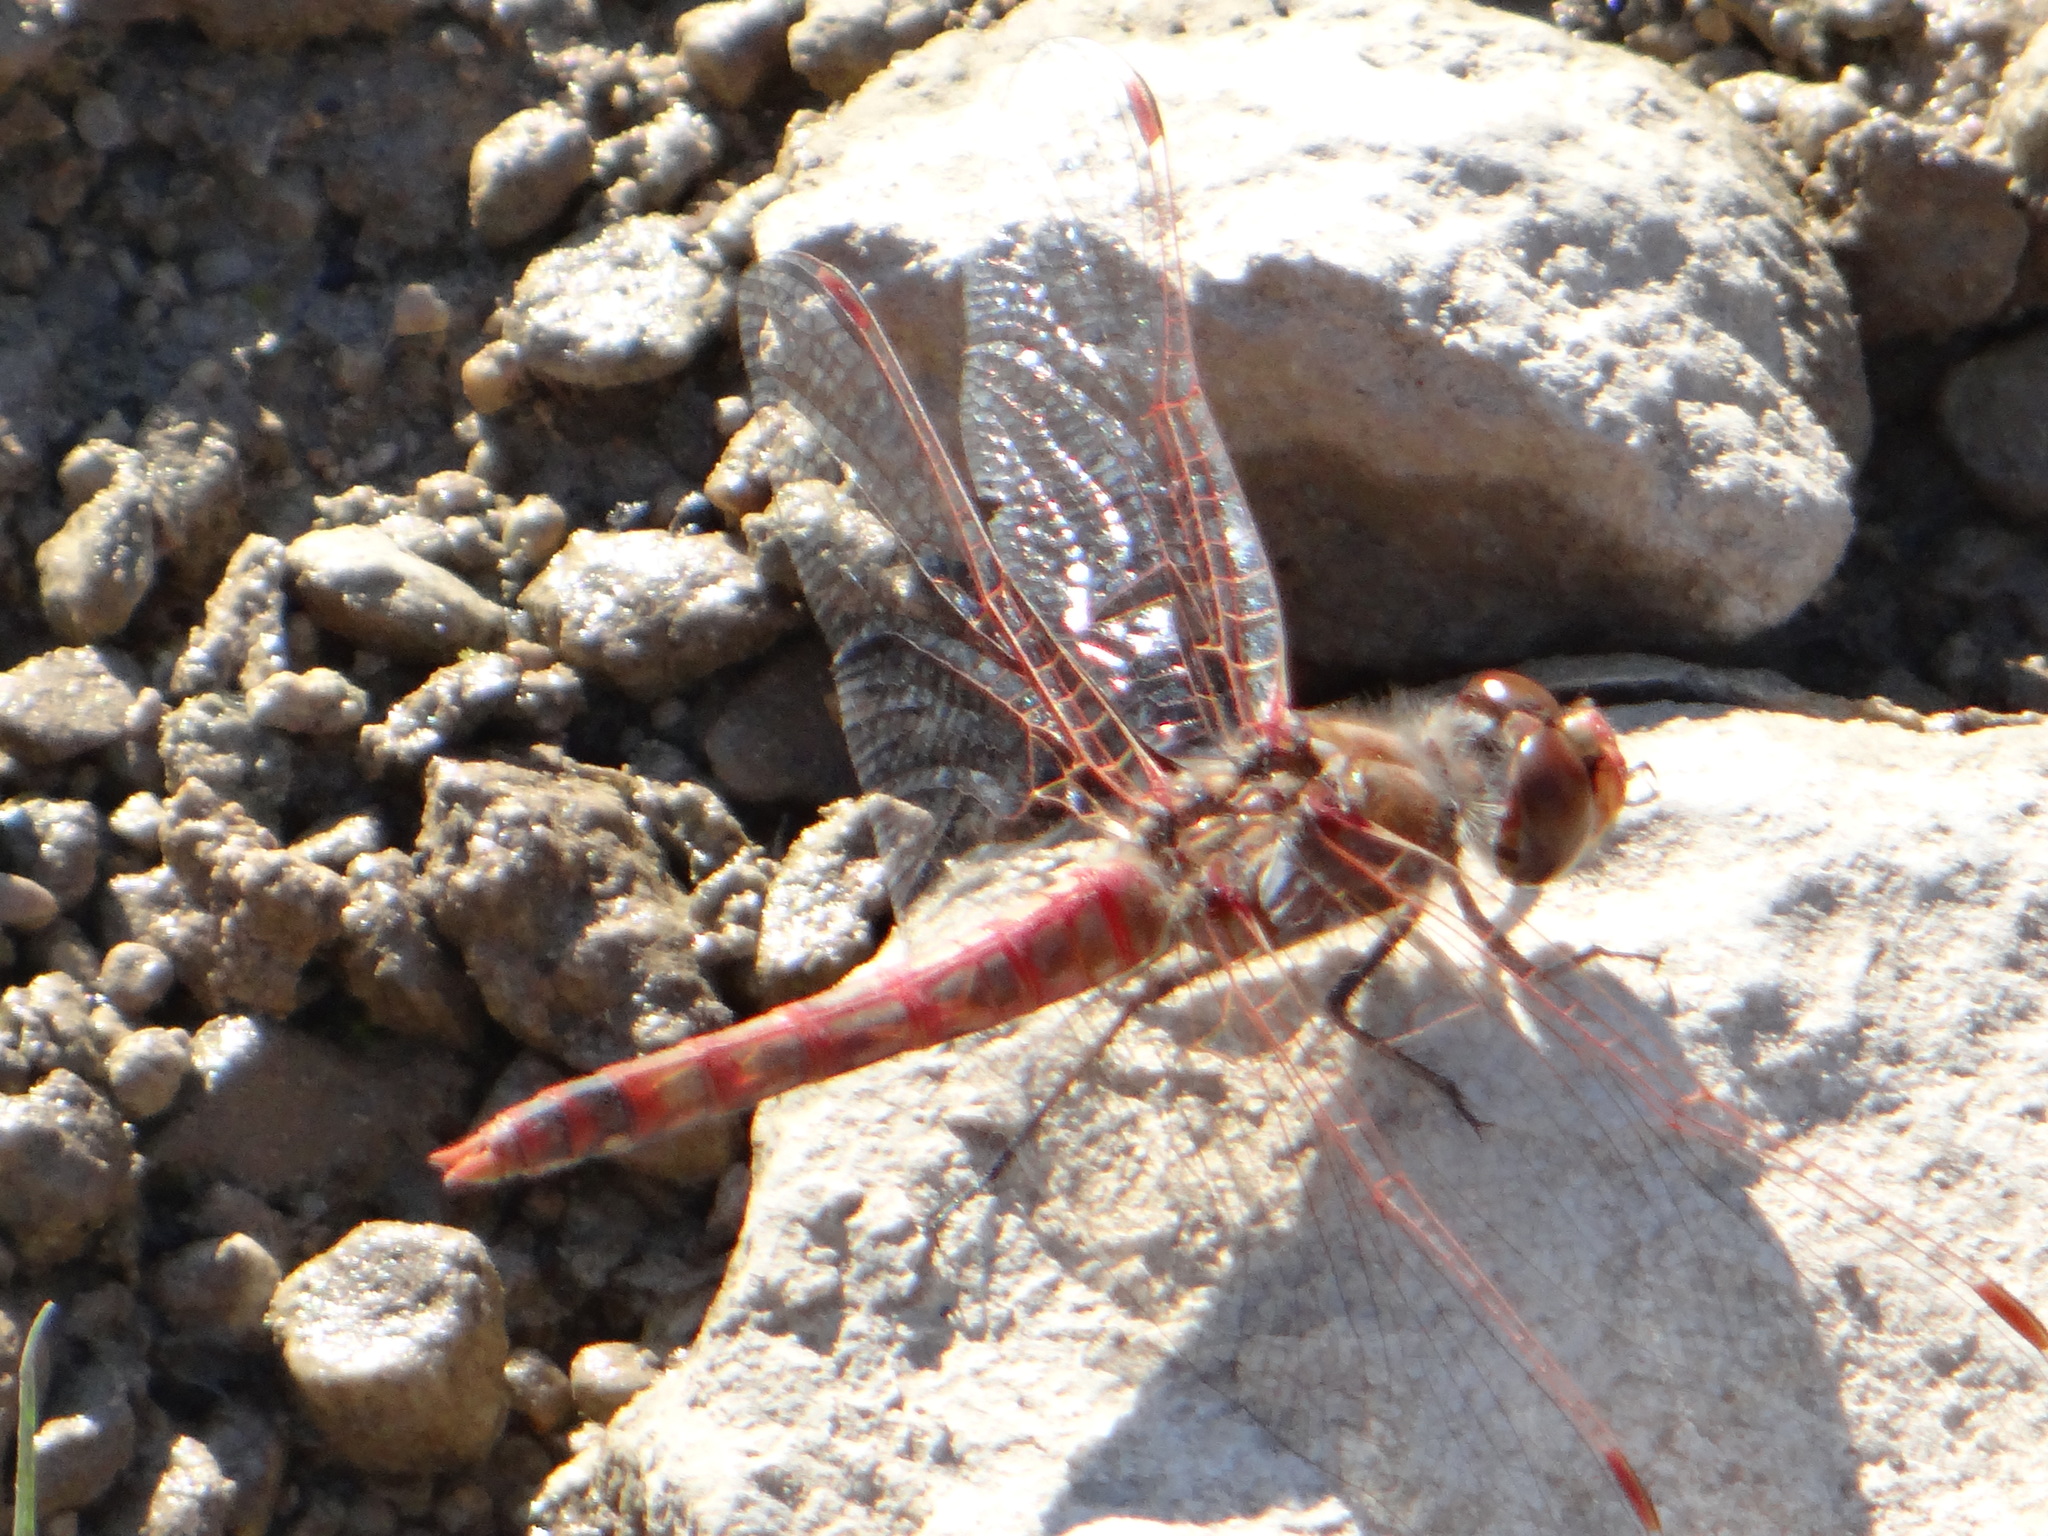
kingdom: Animalia
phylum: Arthropoda
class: Insecta
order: Odonata
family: Libellulidae
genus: Sympetrum
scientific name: Sympetrum corruptum
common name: Variegated meadowhawk
